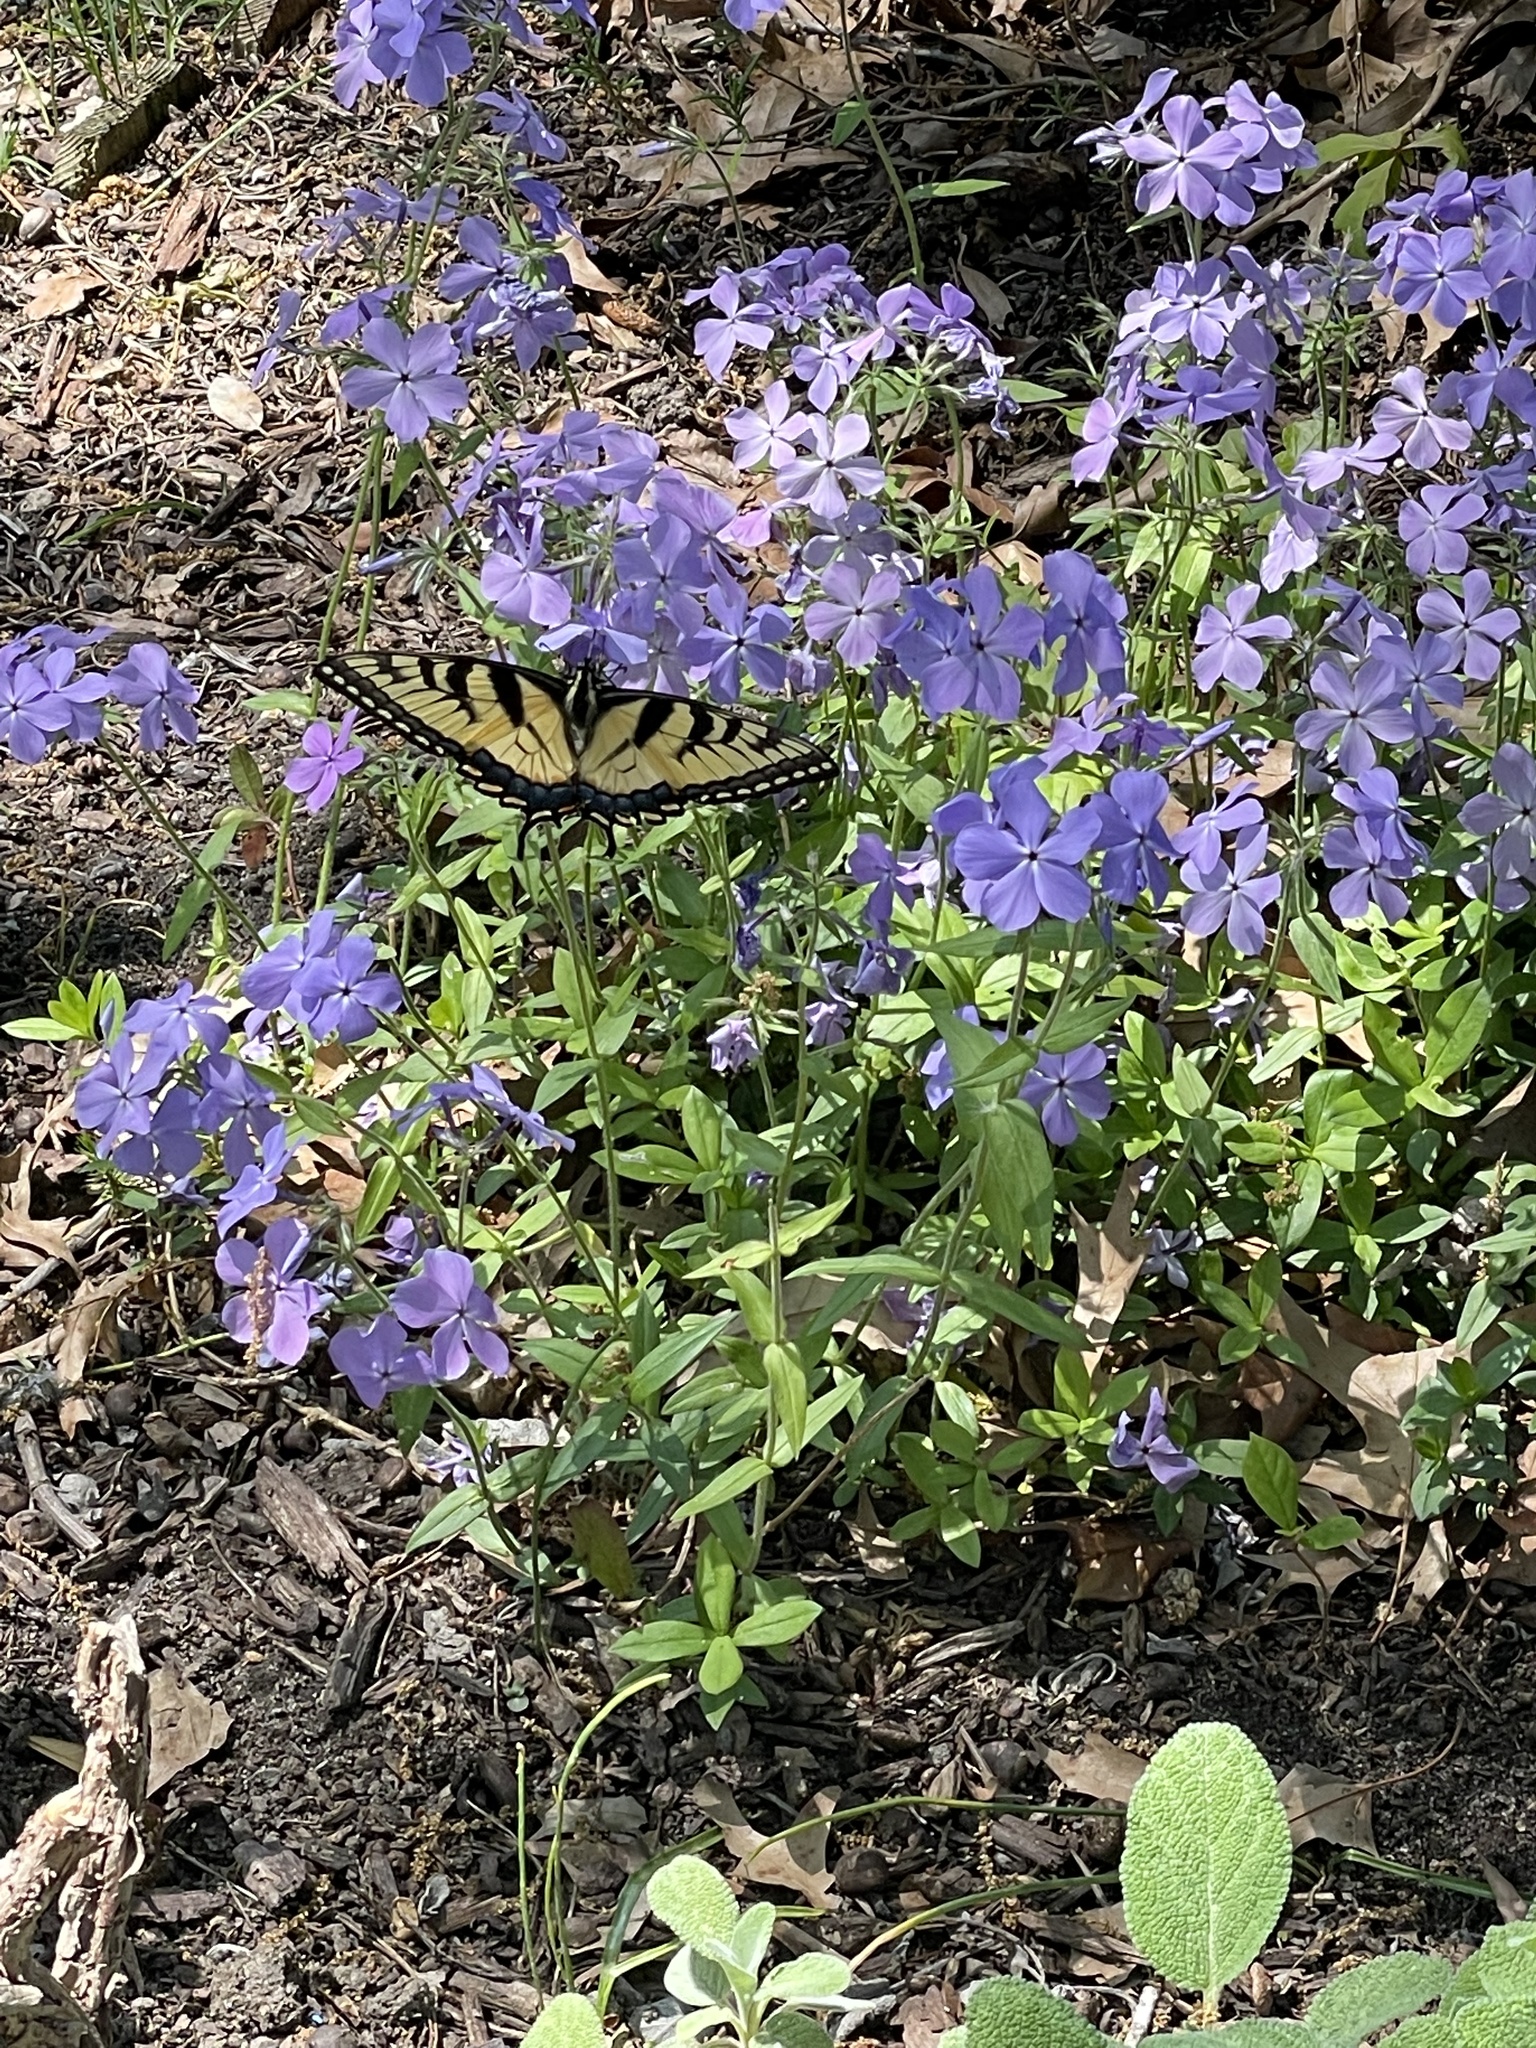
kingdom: Animalia
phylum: Arthropoda
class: Insecta
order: Lepidoptera
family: Papilionidae
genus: Papilio
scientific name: Papilio glaucus
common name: Tiger swallowtail
